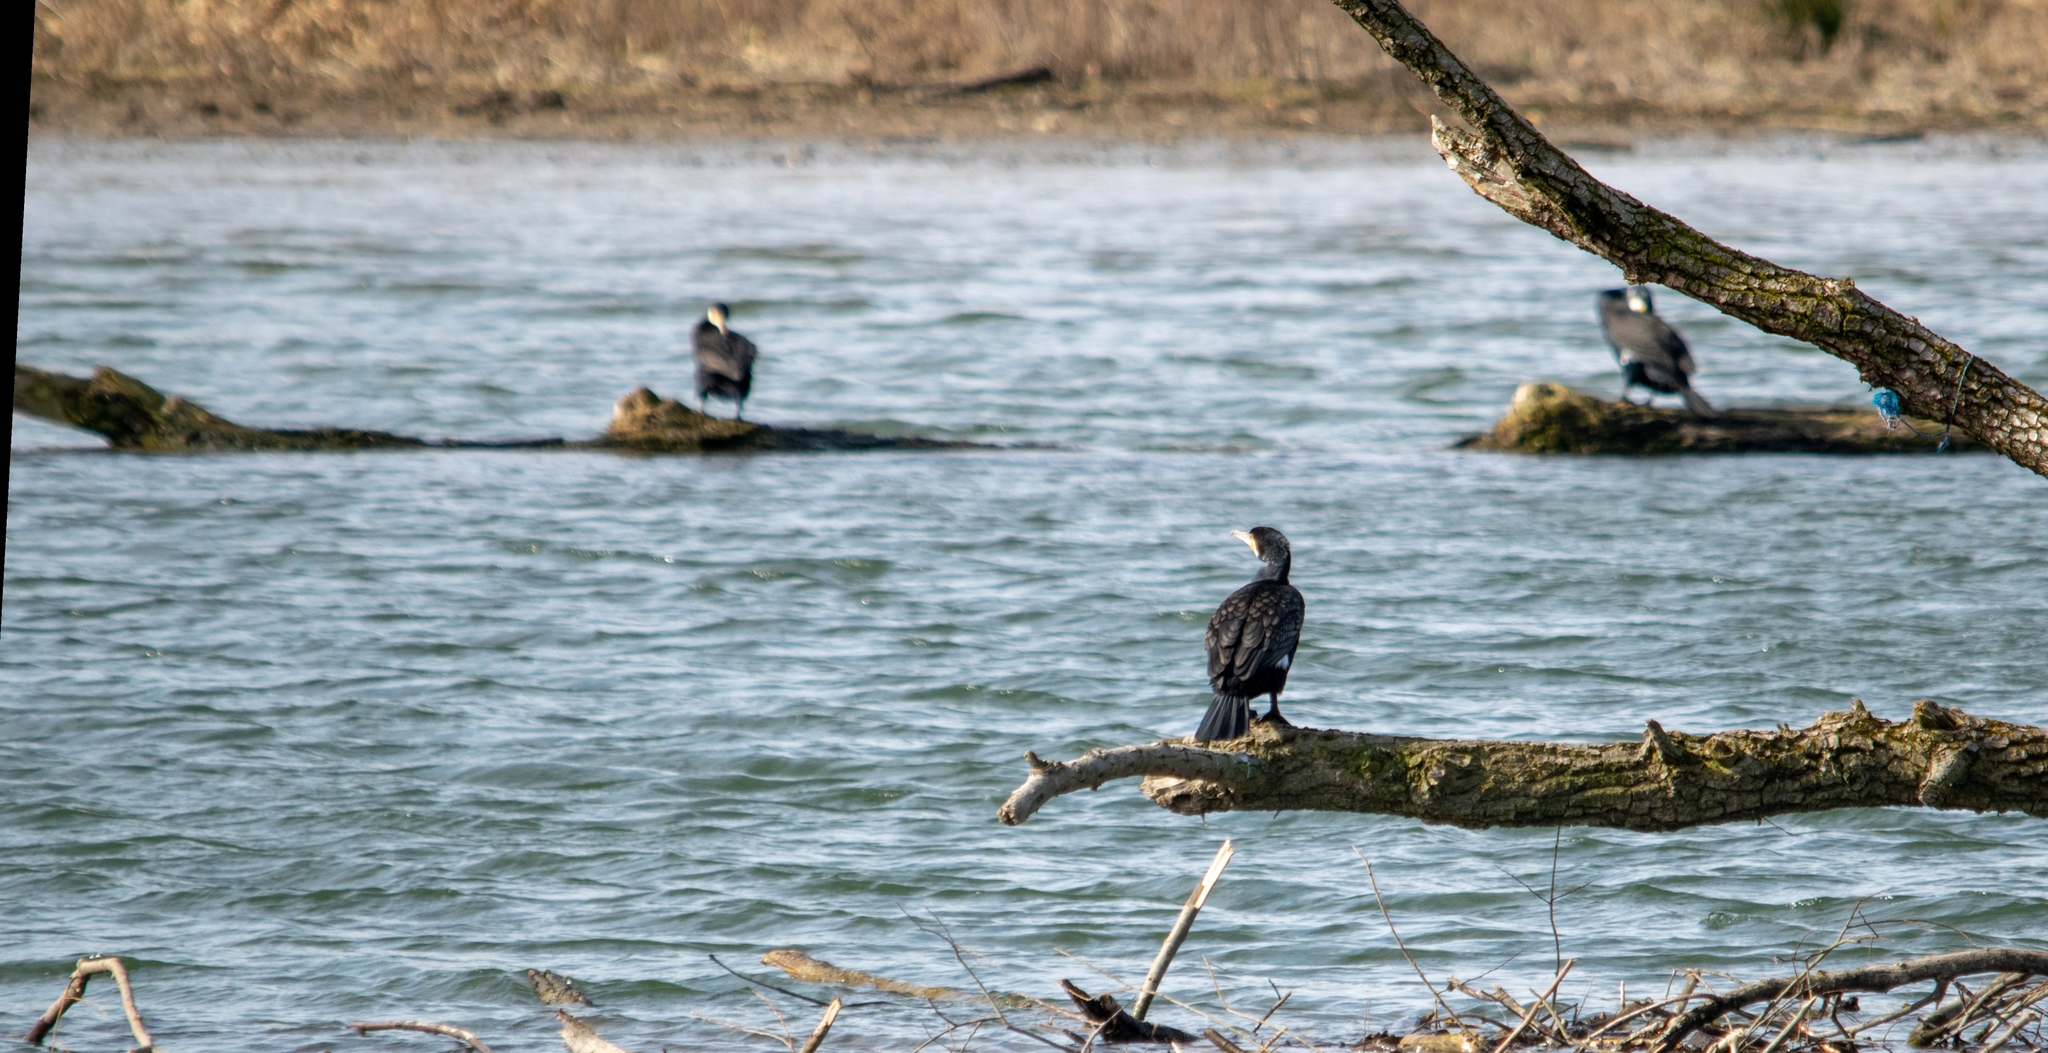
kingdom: Animalia
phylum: Chordata
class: Aves
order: Suliformes
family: Phalacrocoracidae
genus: Phalacrocorax
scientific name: Phalacrocorax carbo
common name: Great cormorant
